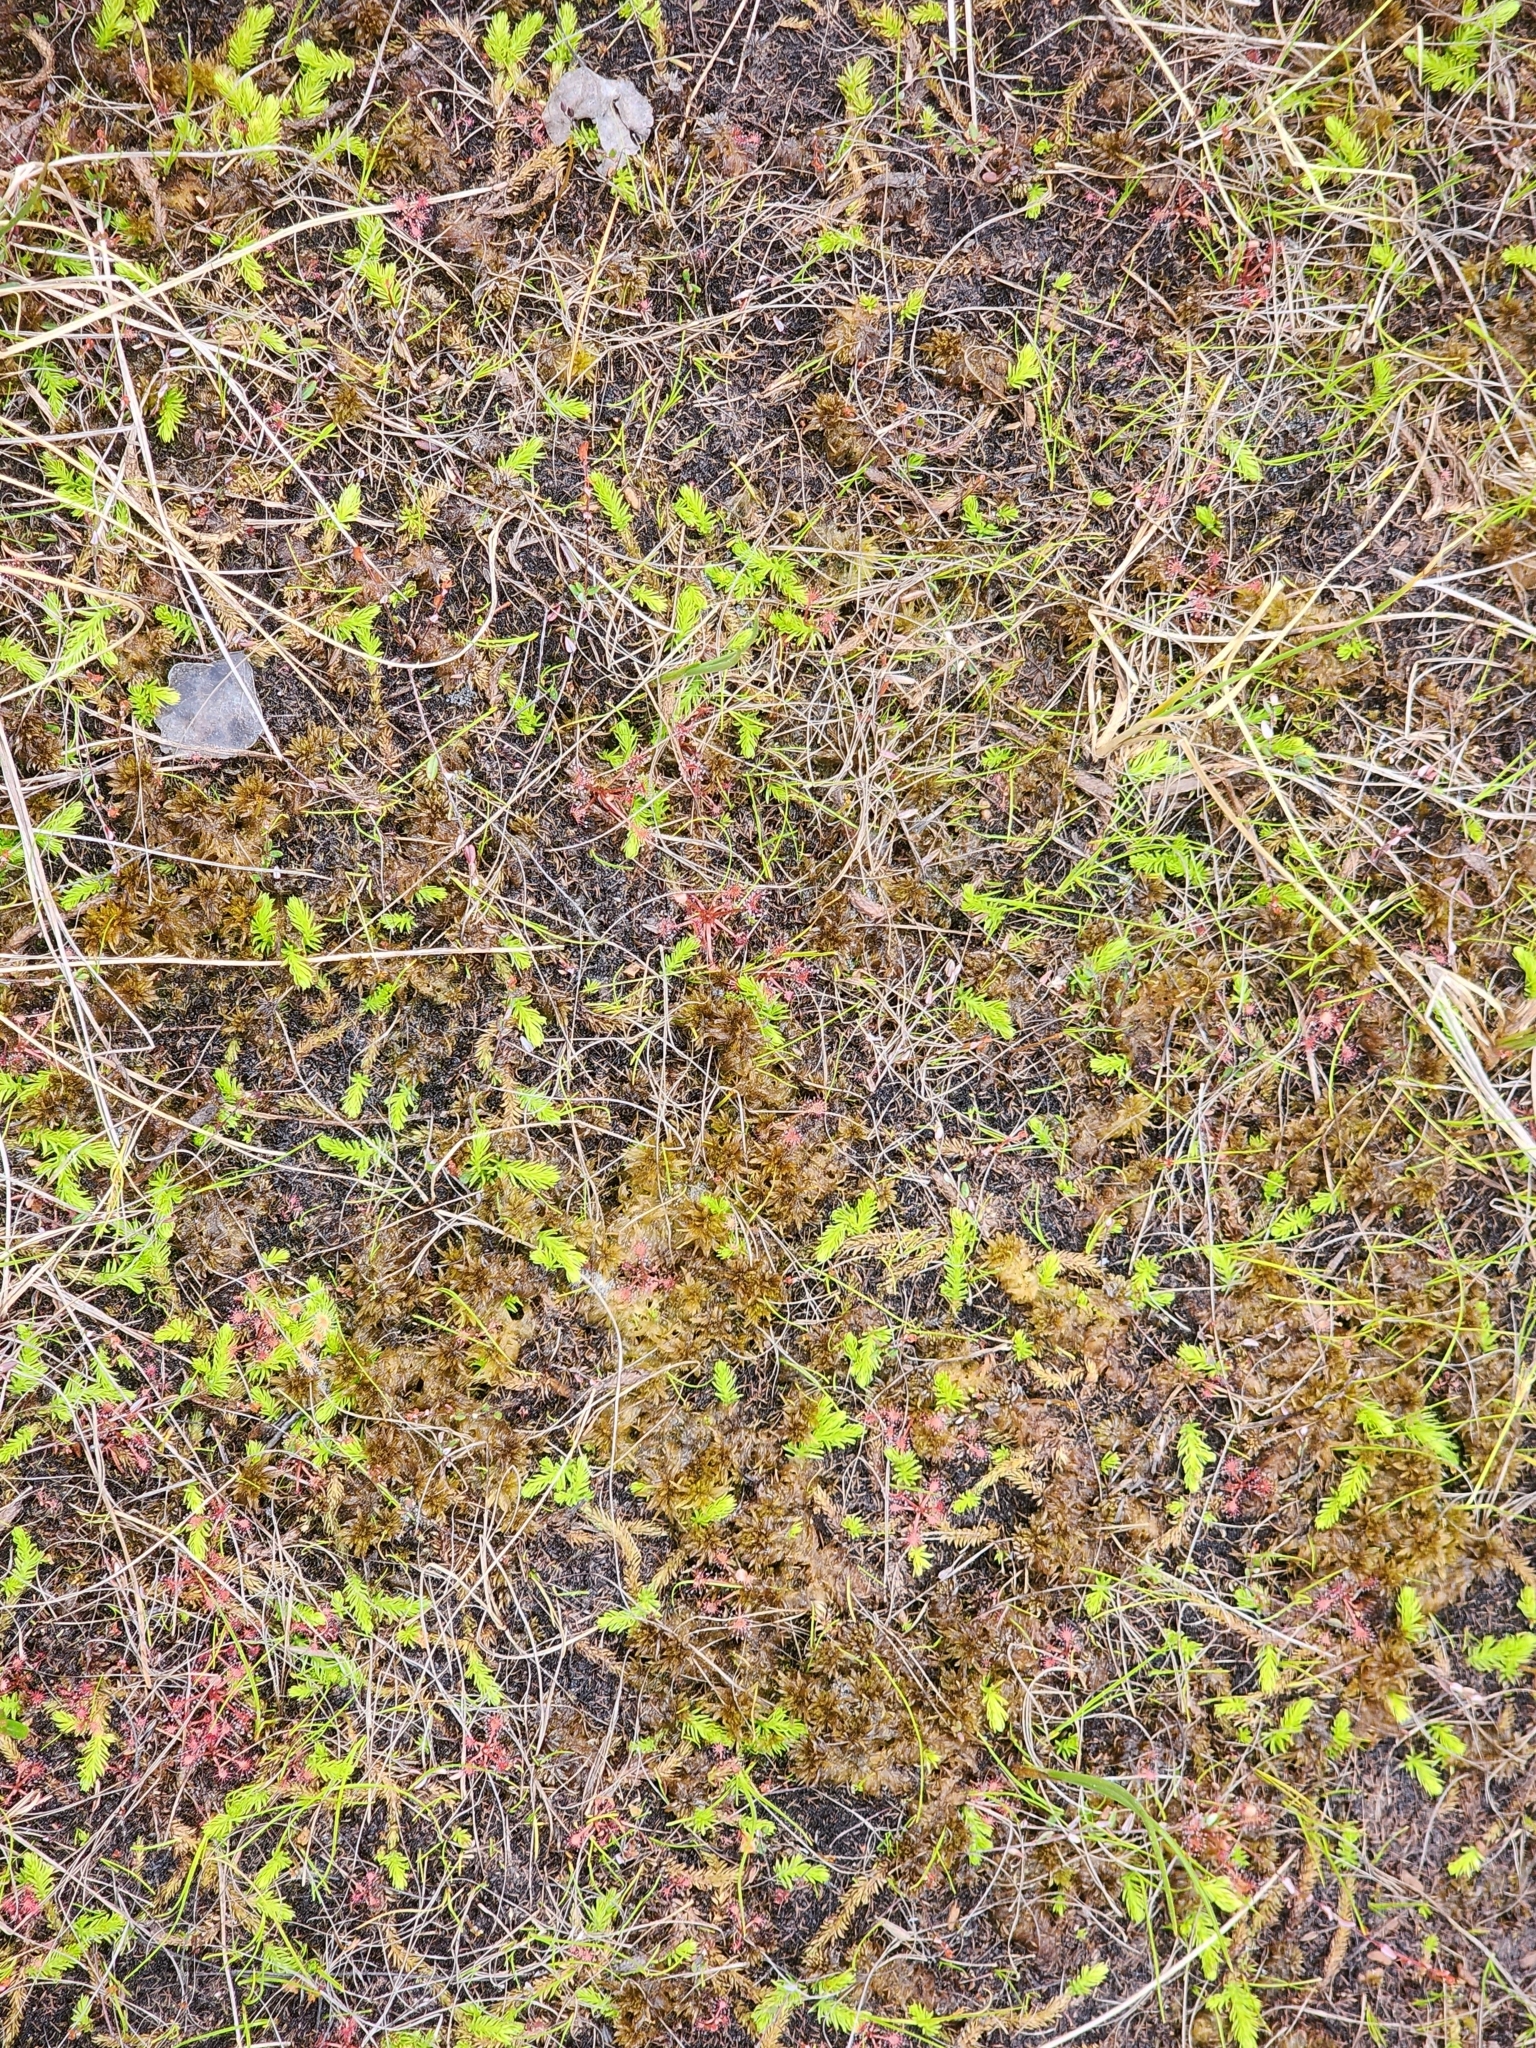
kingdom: Plantae
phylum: Tracheophyta
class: Lycopodiopsida
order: Lycopodiales
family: Lycopodiaceae
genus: Lycopodiella
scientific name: Lycopodiella inundata
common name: Marsh clubmoss
